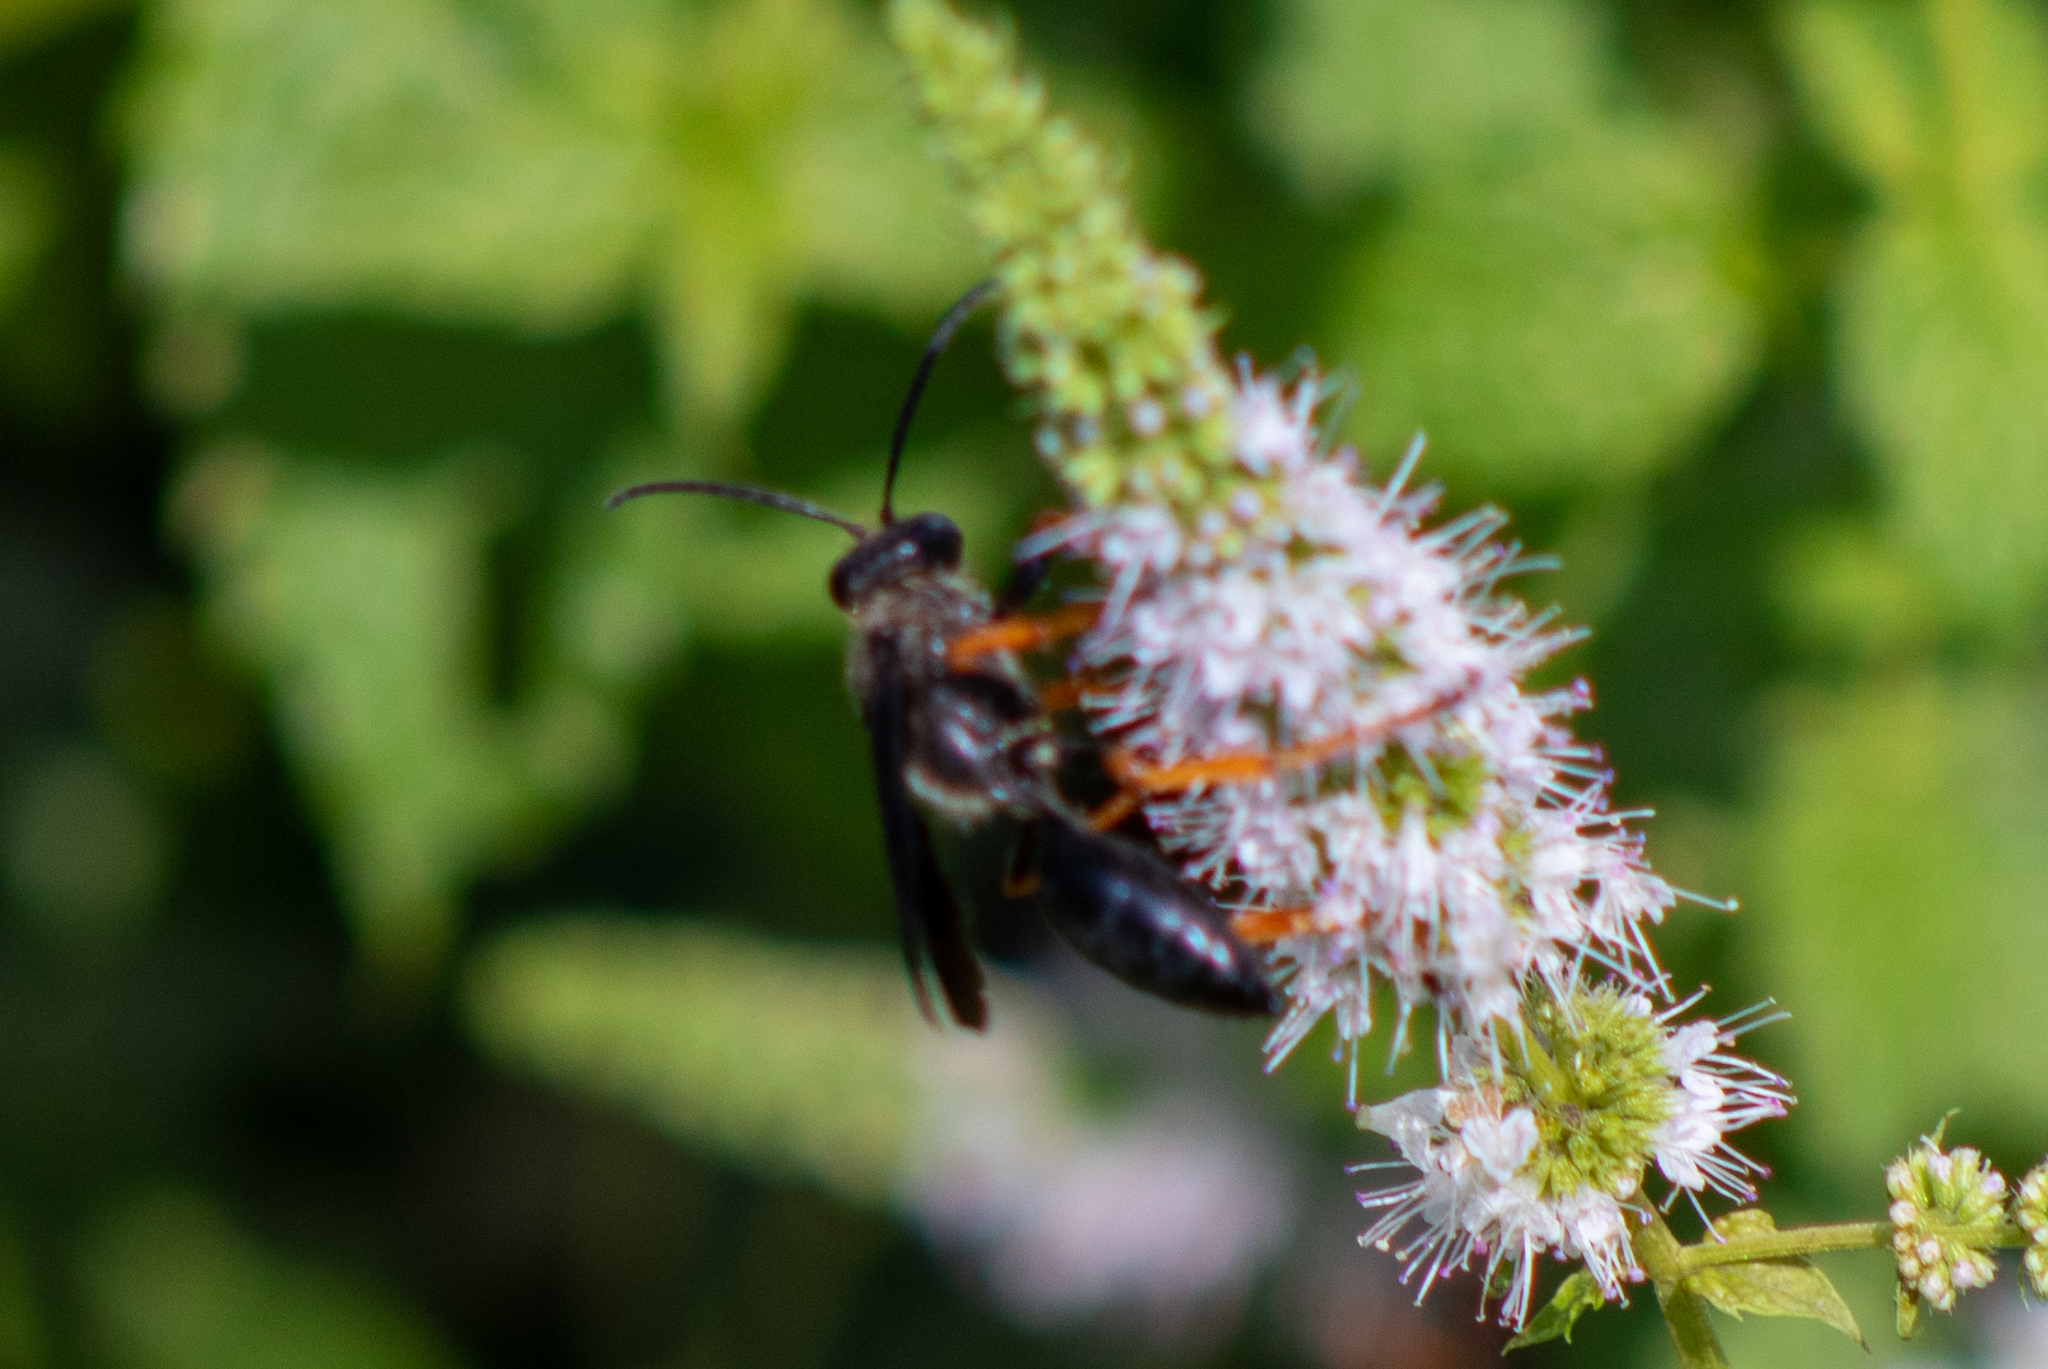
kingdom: Animalia
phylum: Arthropoda
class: Insecta
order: Hymenoptera
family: Sphecidae
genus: Sphex
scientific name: Sphex nudus
